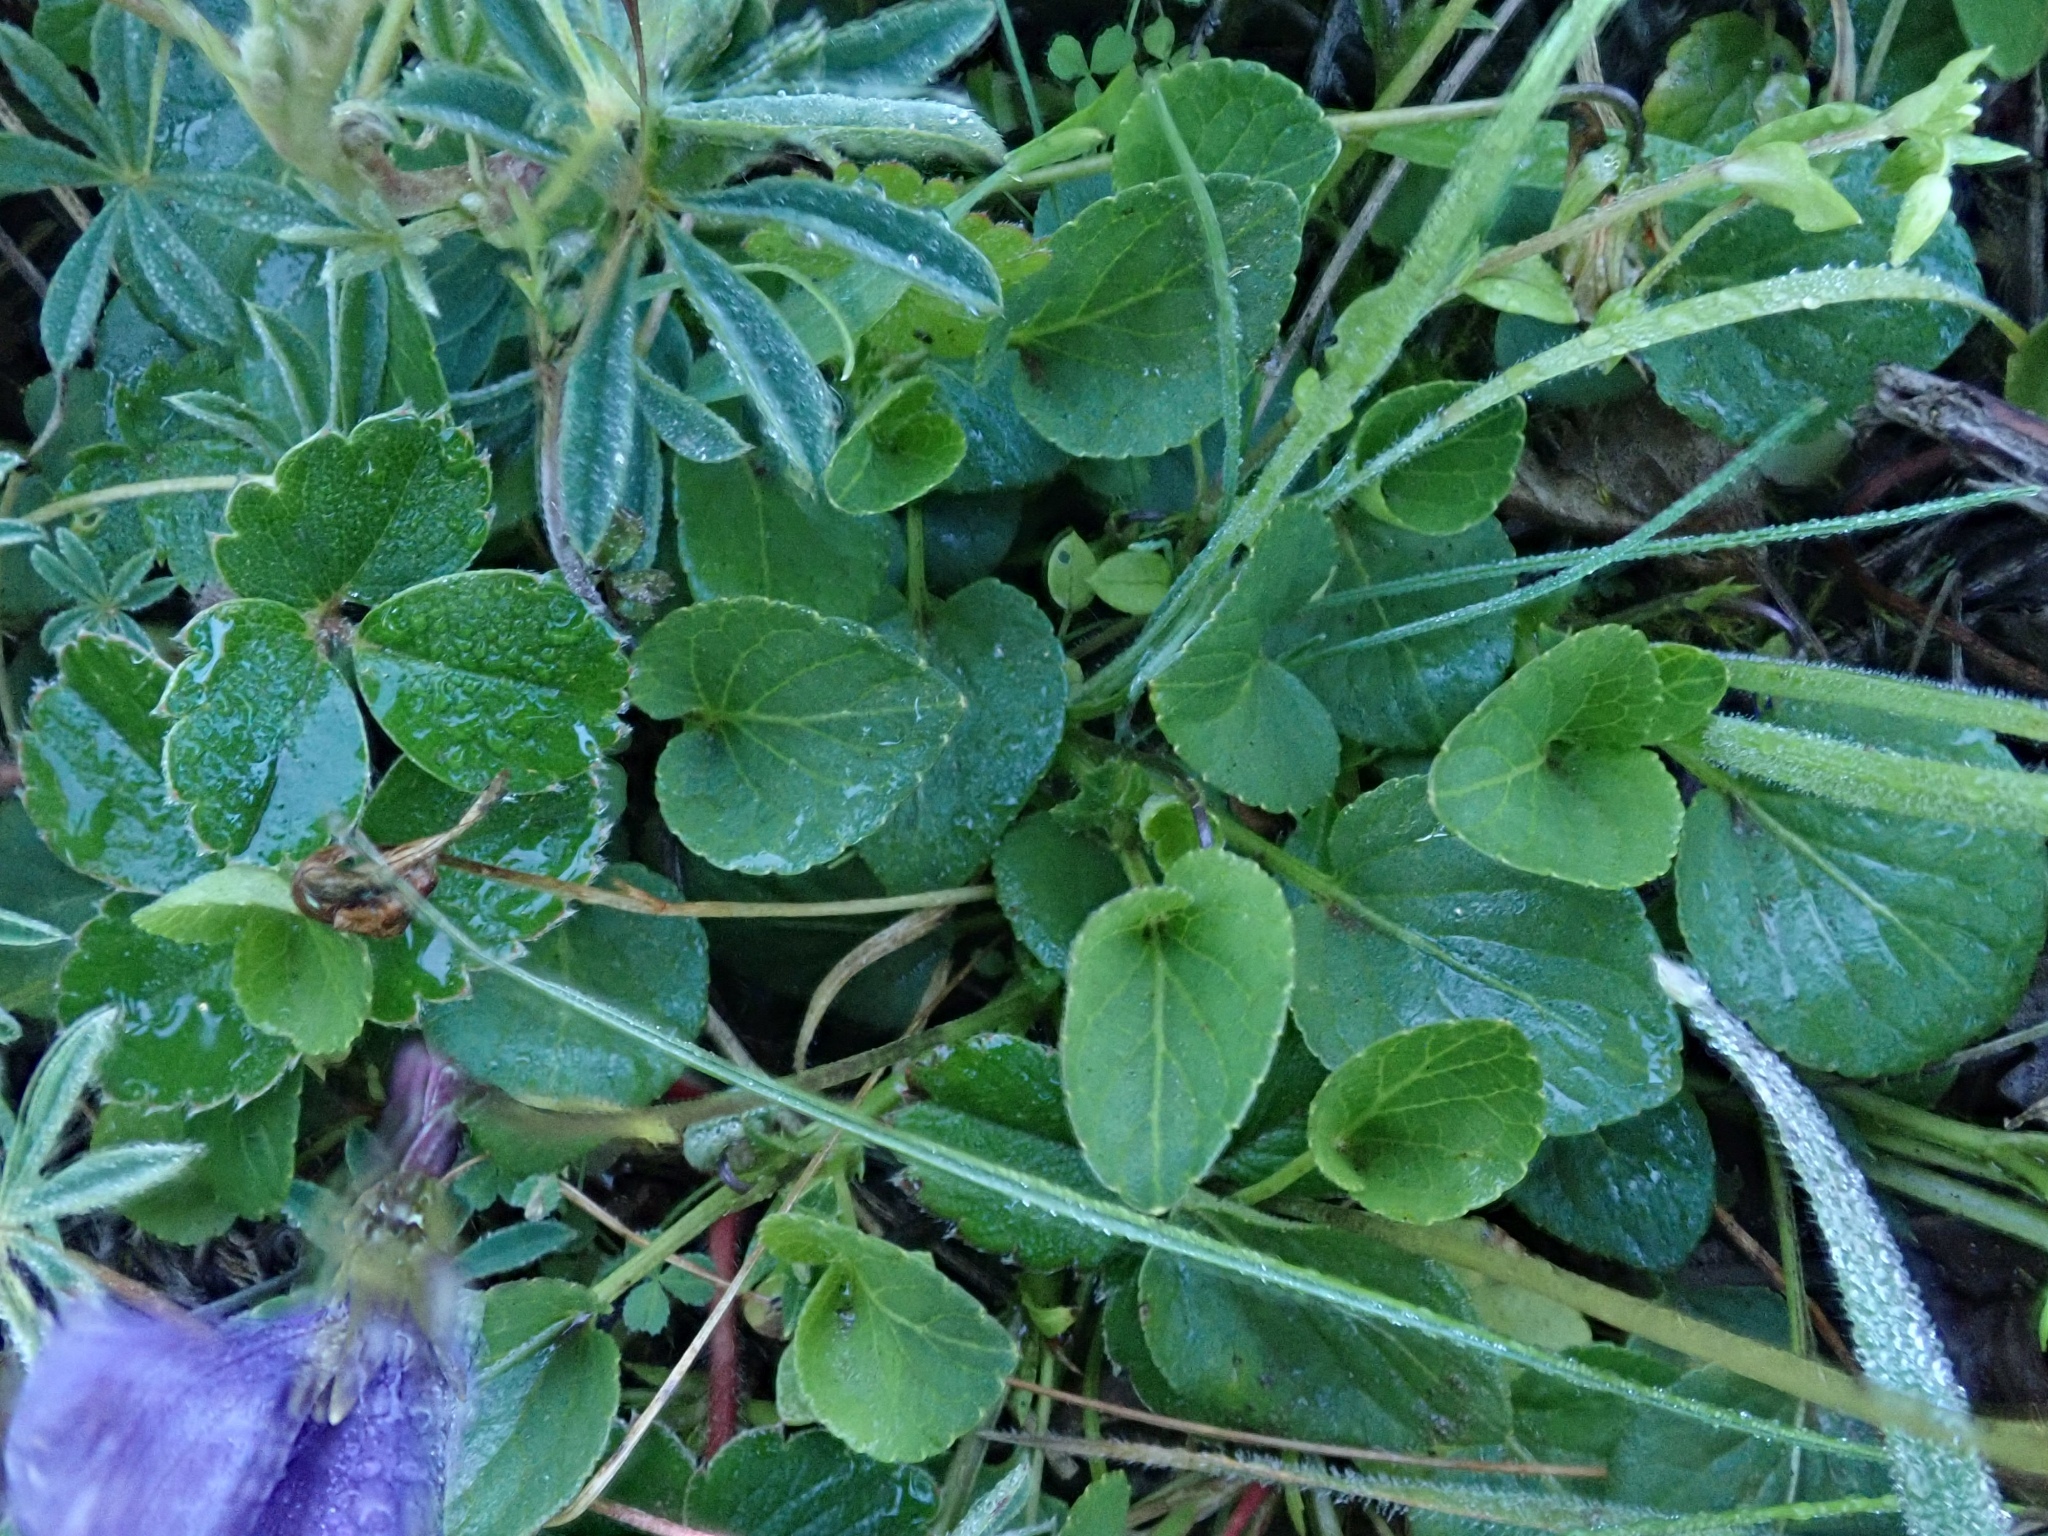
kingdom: Plantae
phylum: Tracheophyta
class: Magnoliopsida
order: Malpighiales
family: Violaceae
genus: Viola
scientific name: Viola adunca
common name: Sand violet
